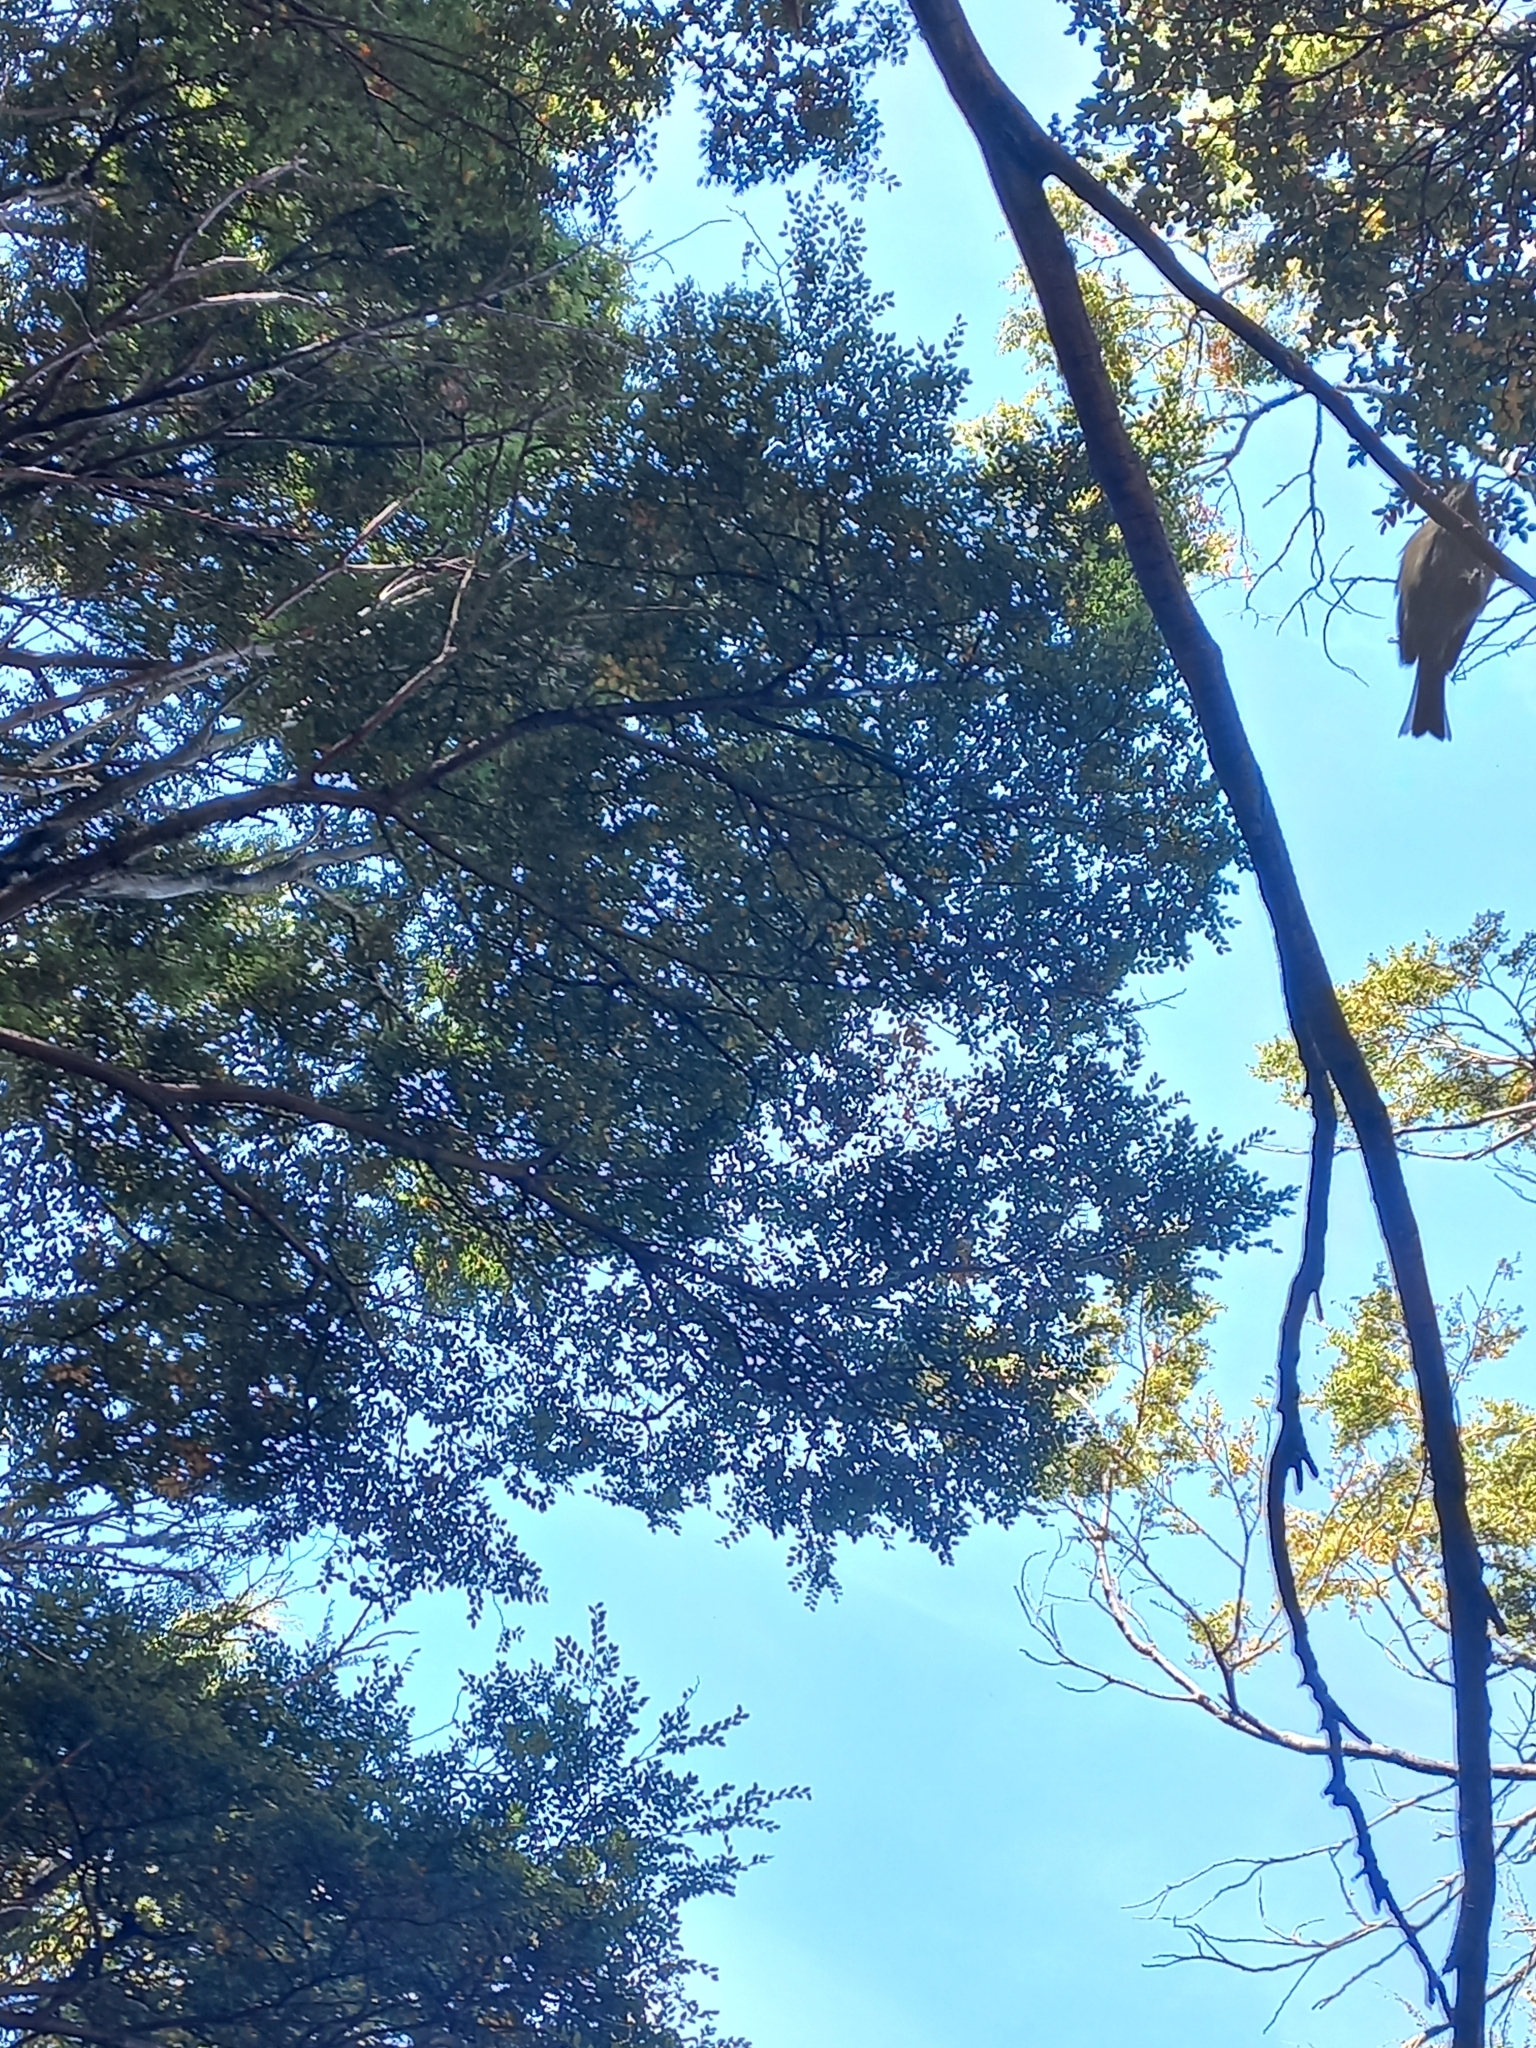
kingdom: Animalia
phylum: Chordata
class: Aves
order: Passeriformes
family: Meliphagidae
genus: Anthornis
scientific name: Anthornis melanura
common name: New zealand bellbird
